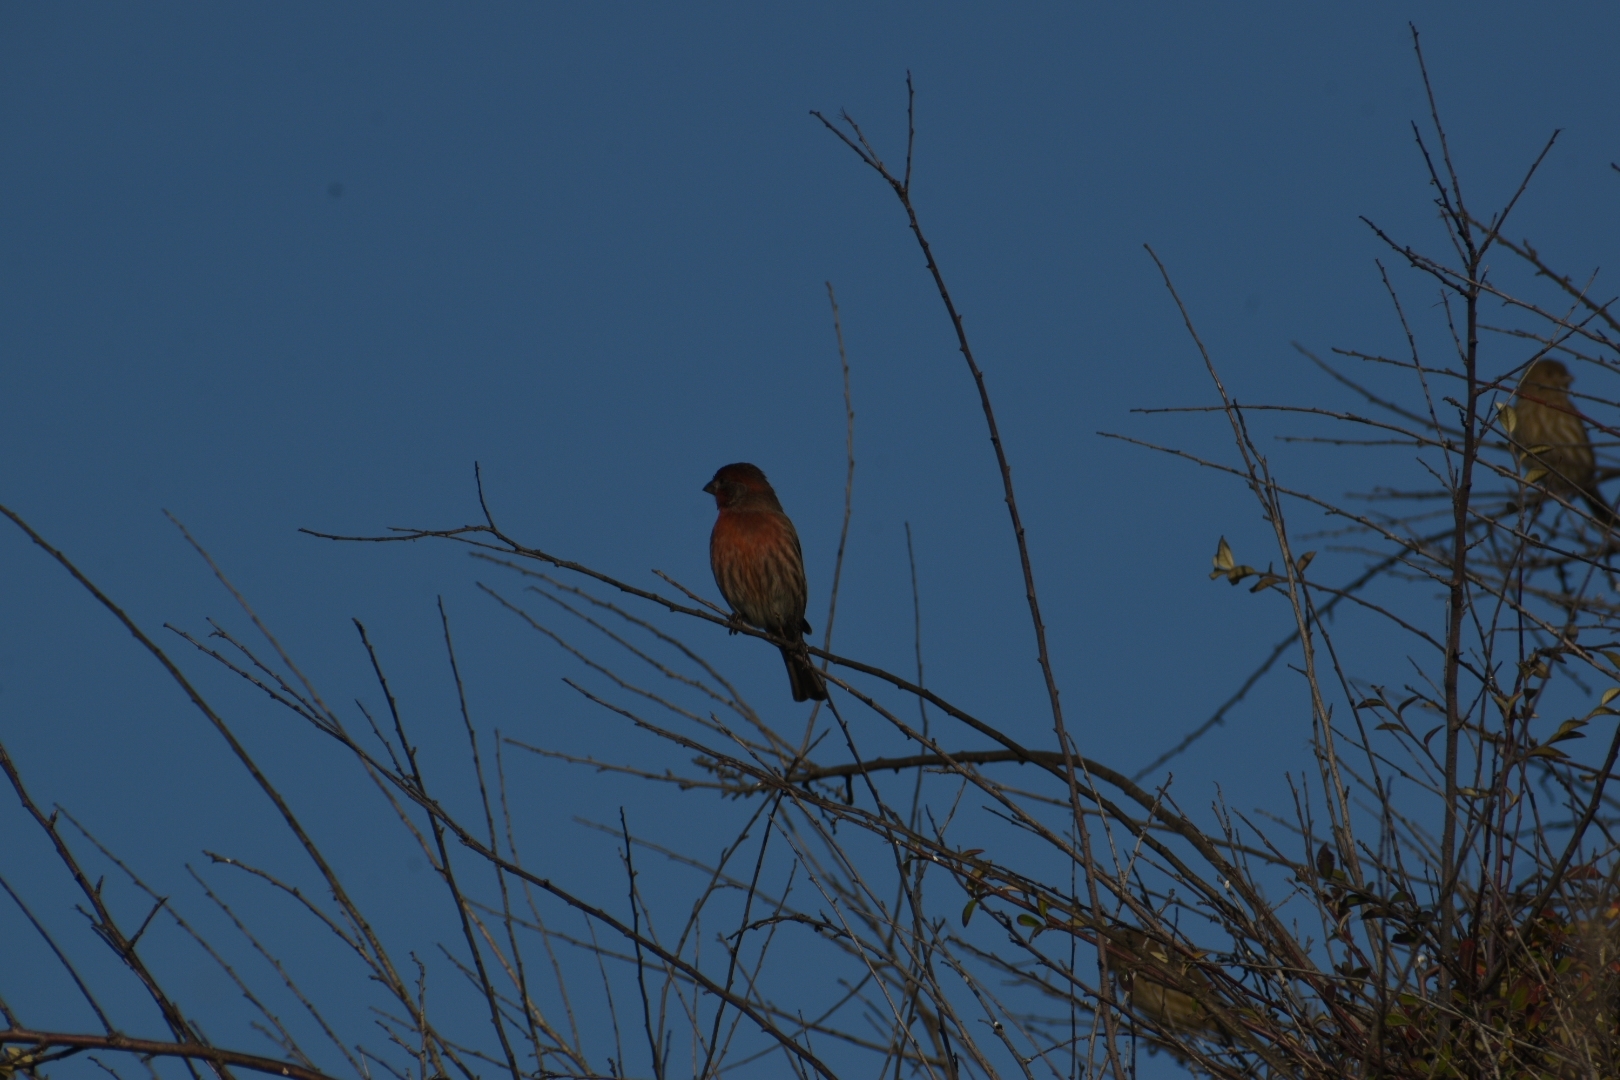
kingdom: Animalia
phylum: Chordata
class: Aves
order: Passeriformes
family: Fringillidae
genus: Haemorhous
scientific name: Haemorhous mexicanus
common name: House finch
